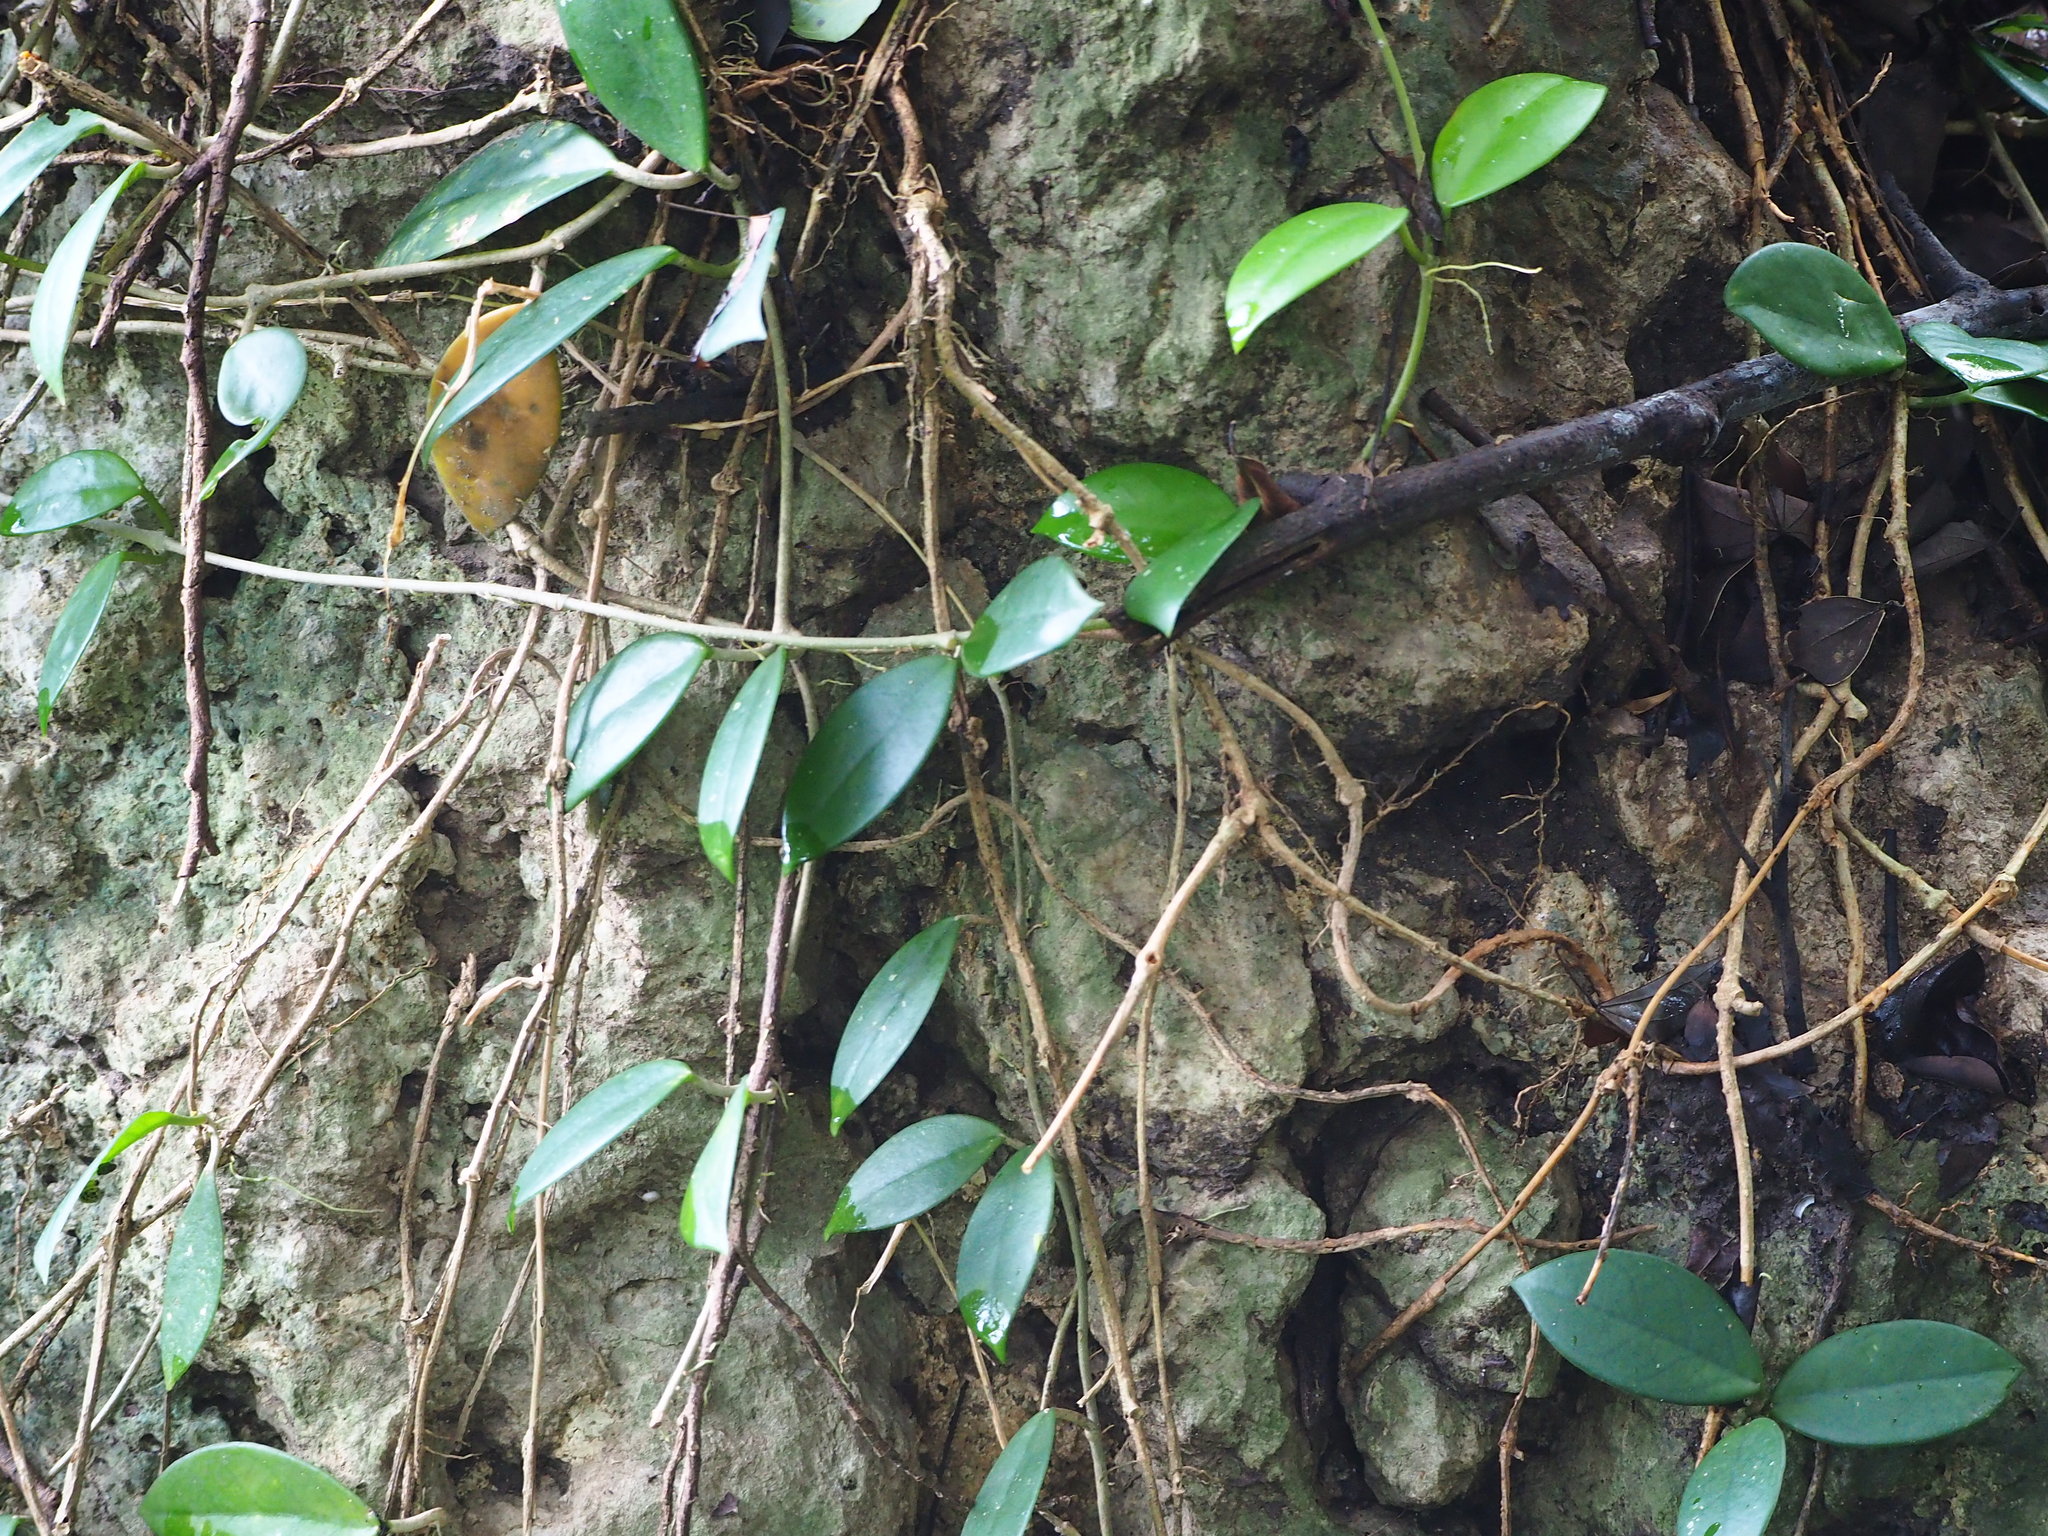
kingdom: Plantae
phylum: Tracheophyta
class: Magnoliopsida
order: Gentianales
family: Apocynaceae
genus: Hoya
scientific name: Hoya carnosa
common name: Honeyplant
